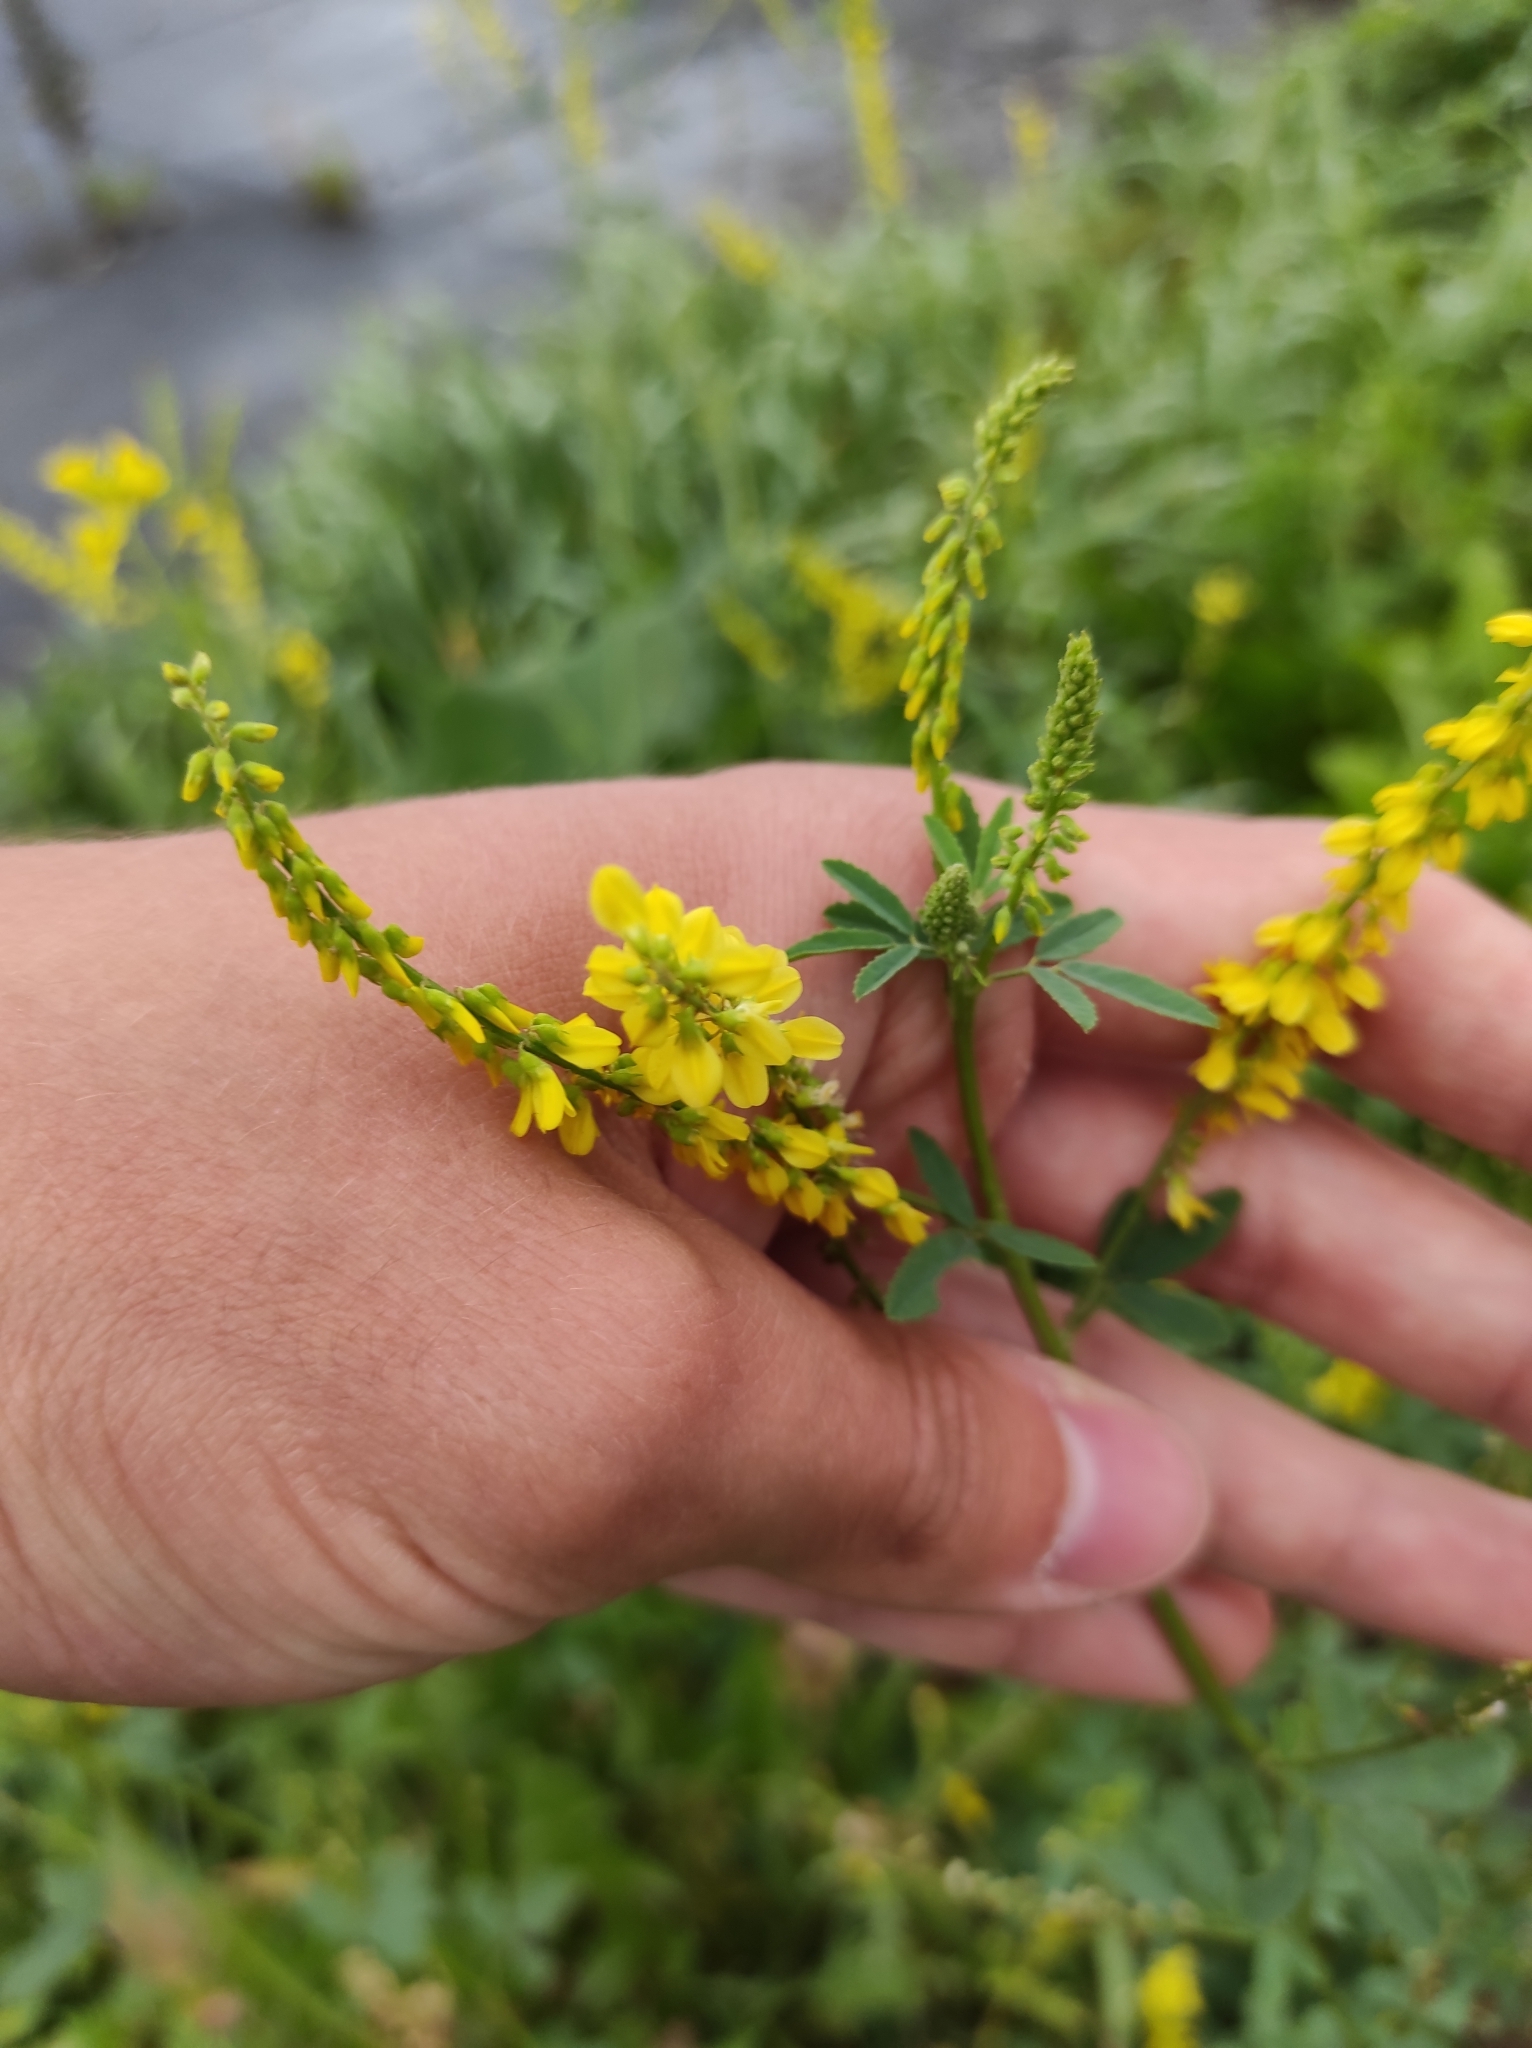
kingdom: Plantae
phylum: Tracheophyta
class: Magnoliopsida
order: Fabales
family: Fabaceae
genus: Melilotus
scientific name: Melilotus suaveolens
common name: Daghestan sweet-clover
